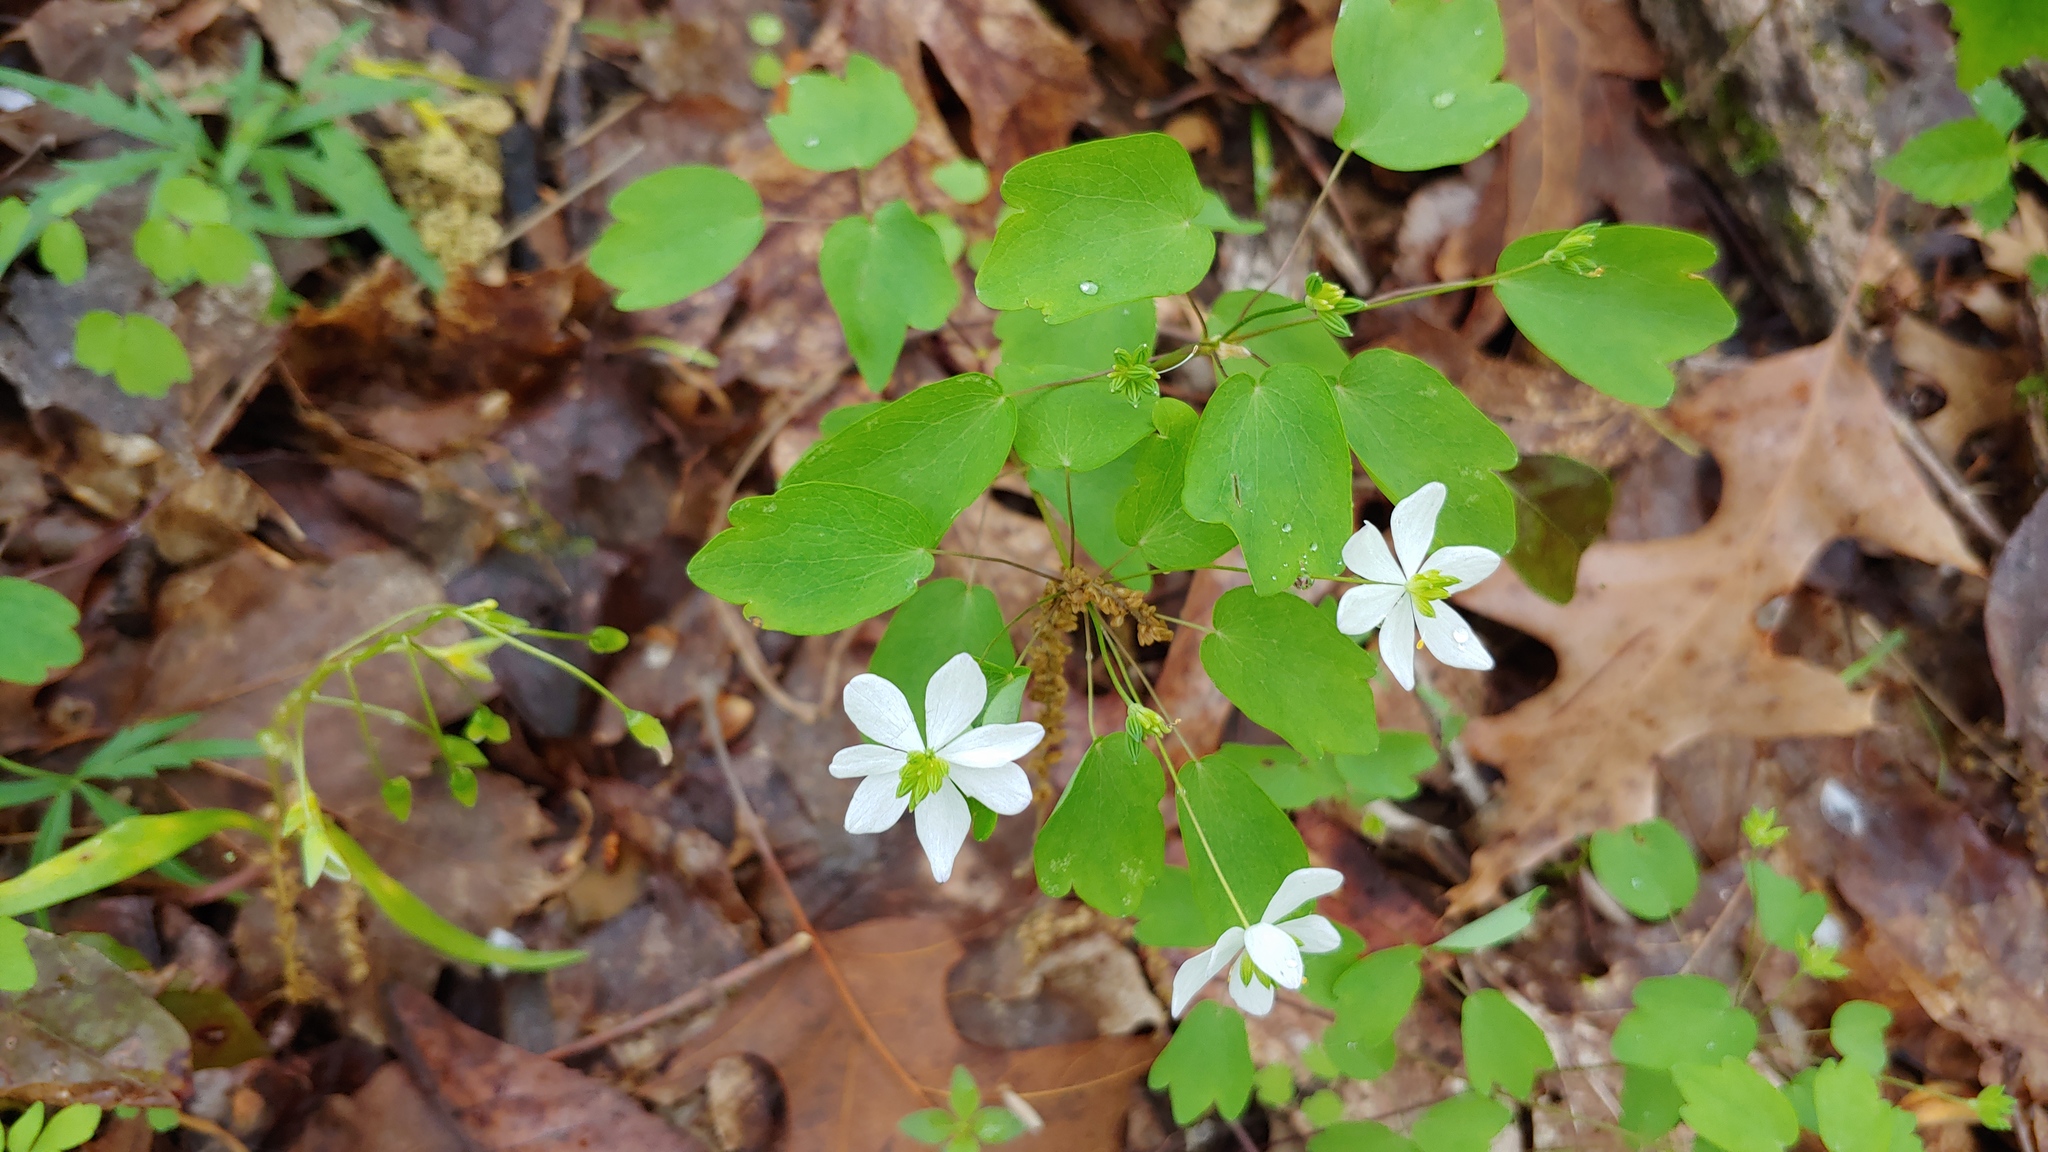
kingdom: Plantae
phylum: Tracheophyta
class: Magnoliopsida
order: Ranunculales
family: Ranunculaceae
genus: Thalictrum
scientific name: Thalictrum thalictroides
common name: Rue-anemone
